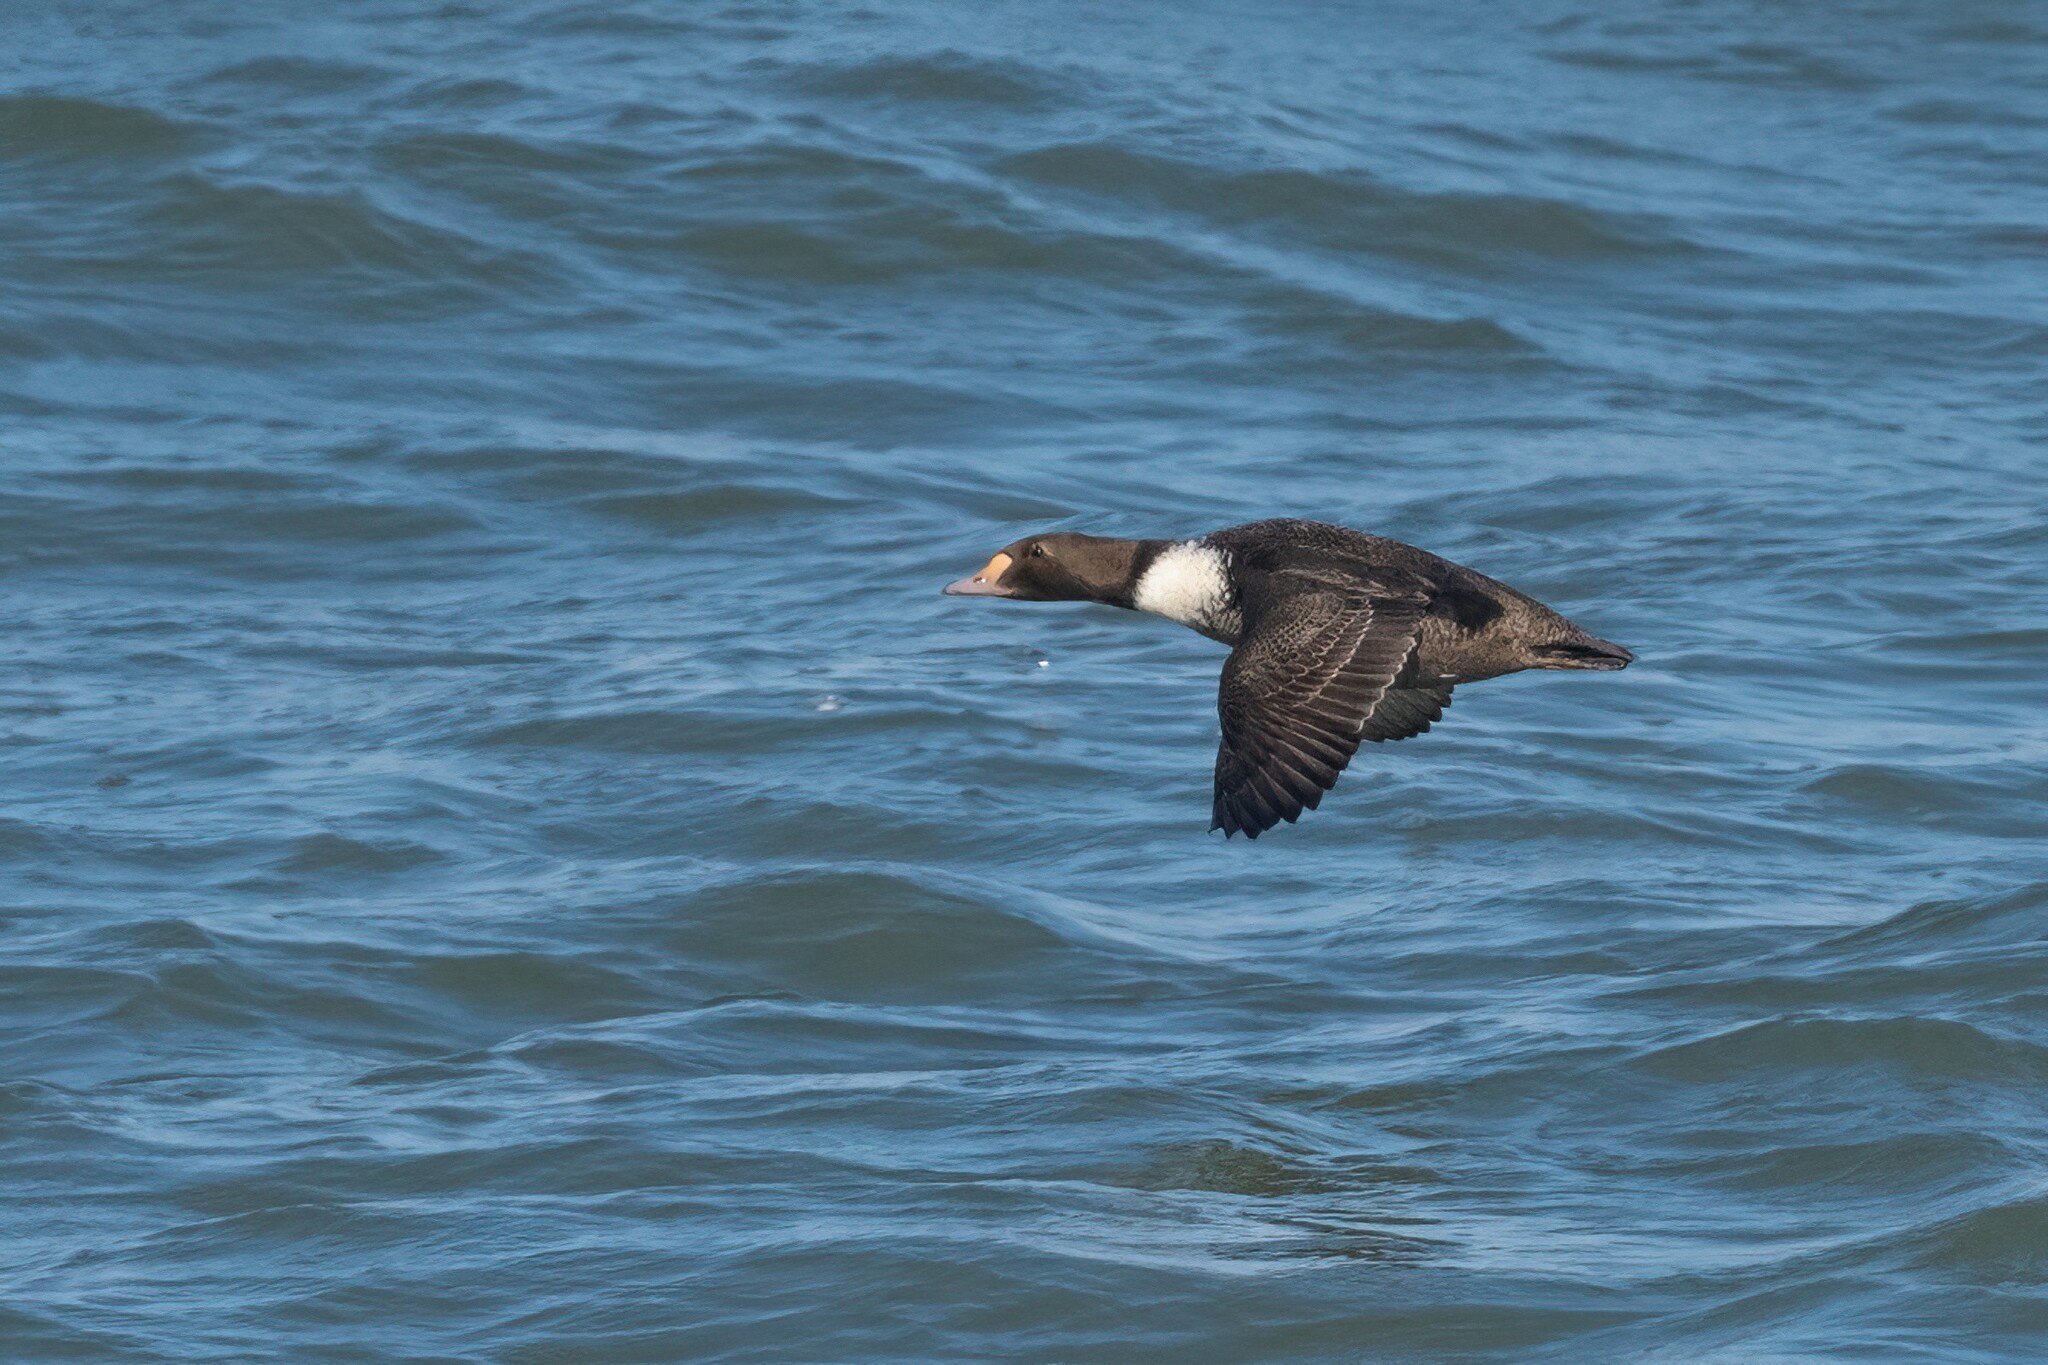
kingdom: Animalia
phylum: Chordata
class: Aves
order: Anseriformes
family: Anatidae
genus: Somateria
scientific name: Somateria spectabilis
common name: King eider
